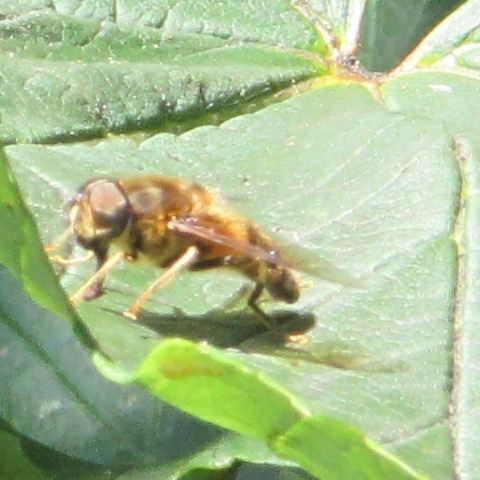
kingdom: Animalia
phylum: Arthropoda
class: Insecta
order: Diptera
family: Syrphidae
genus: Eristalis
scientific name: Eristalis pertinax
